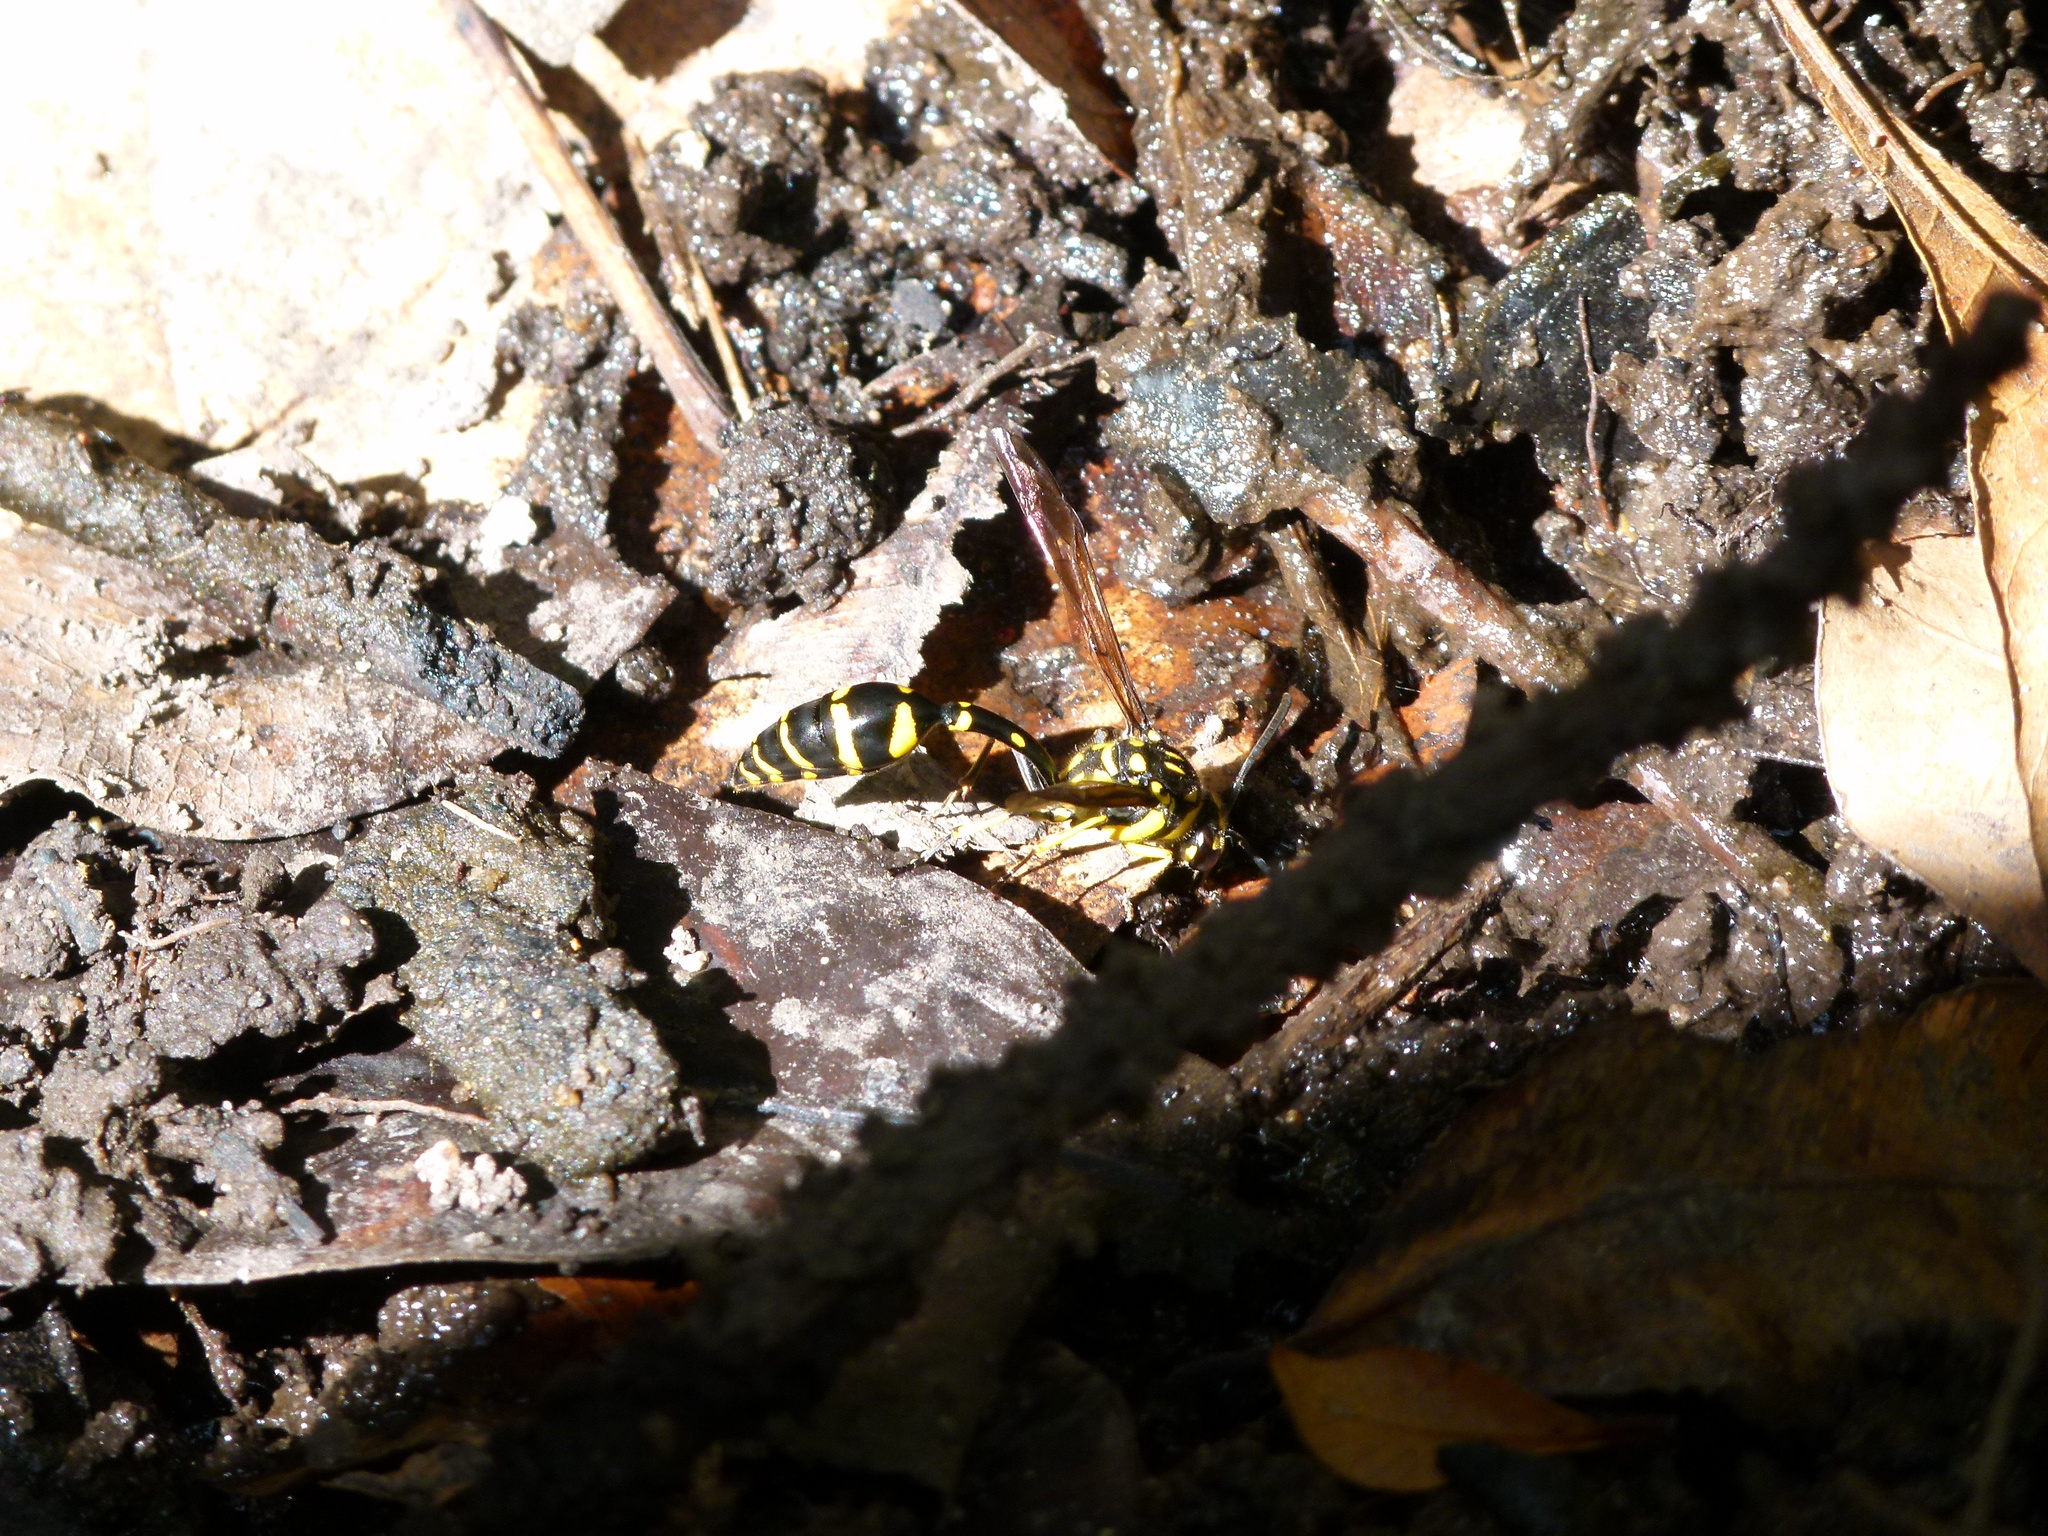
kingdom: Animalia
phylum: Arthropoda
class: Insecta
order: Hymenoptera
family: Eumenidae
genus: Phimenes
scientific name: Phimenes arcuatus
